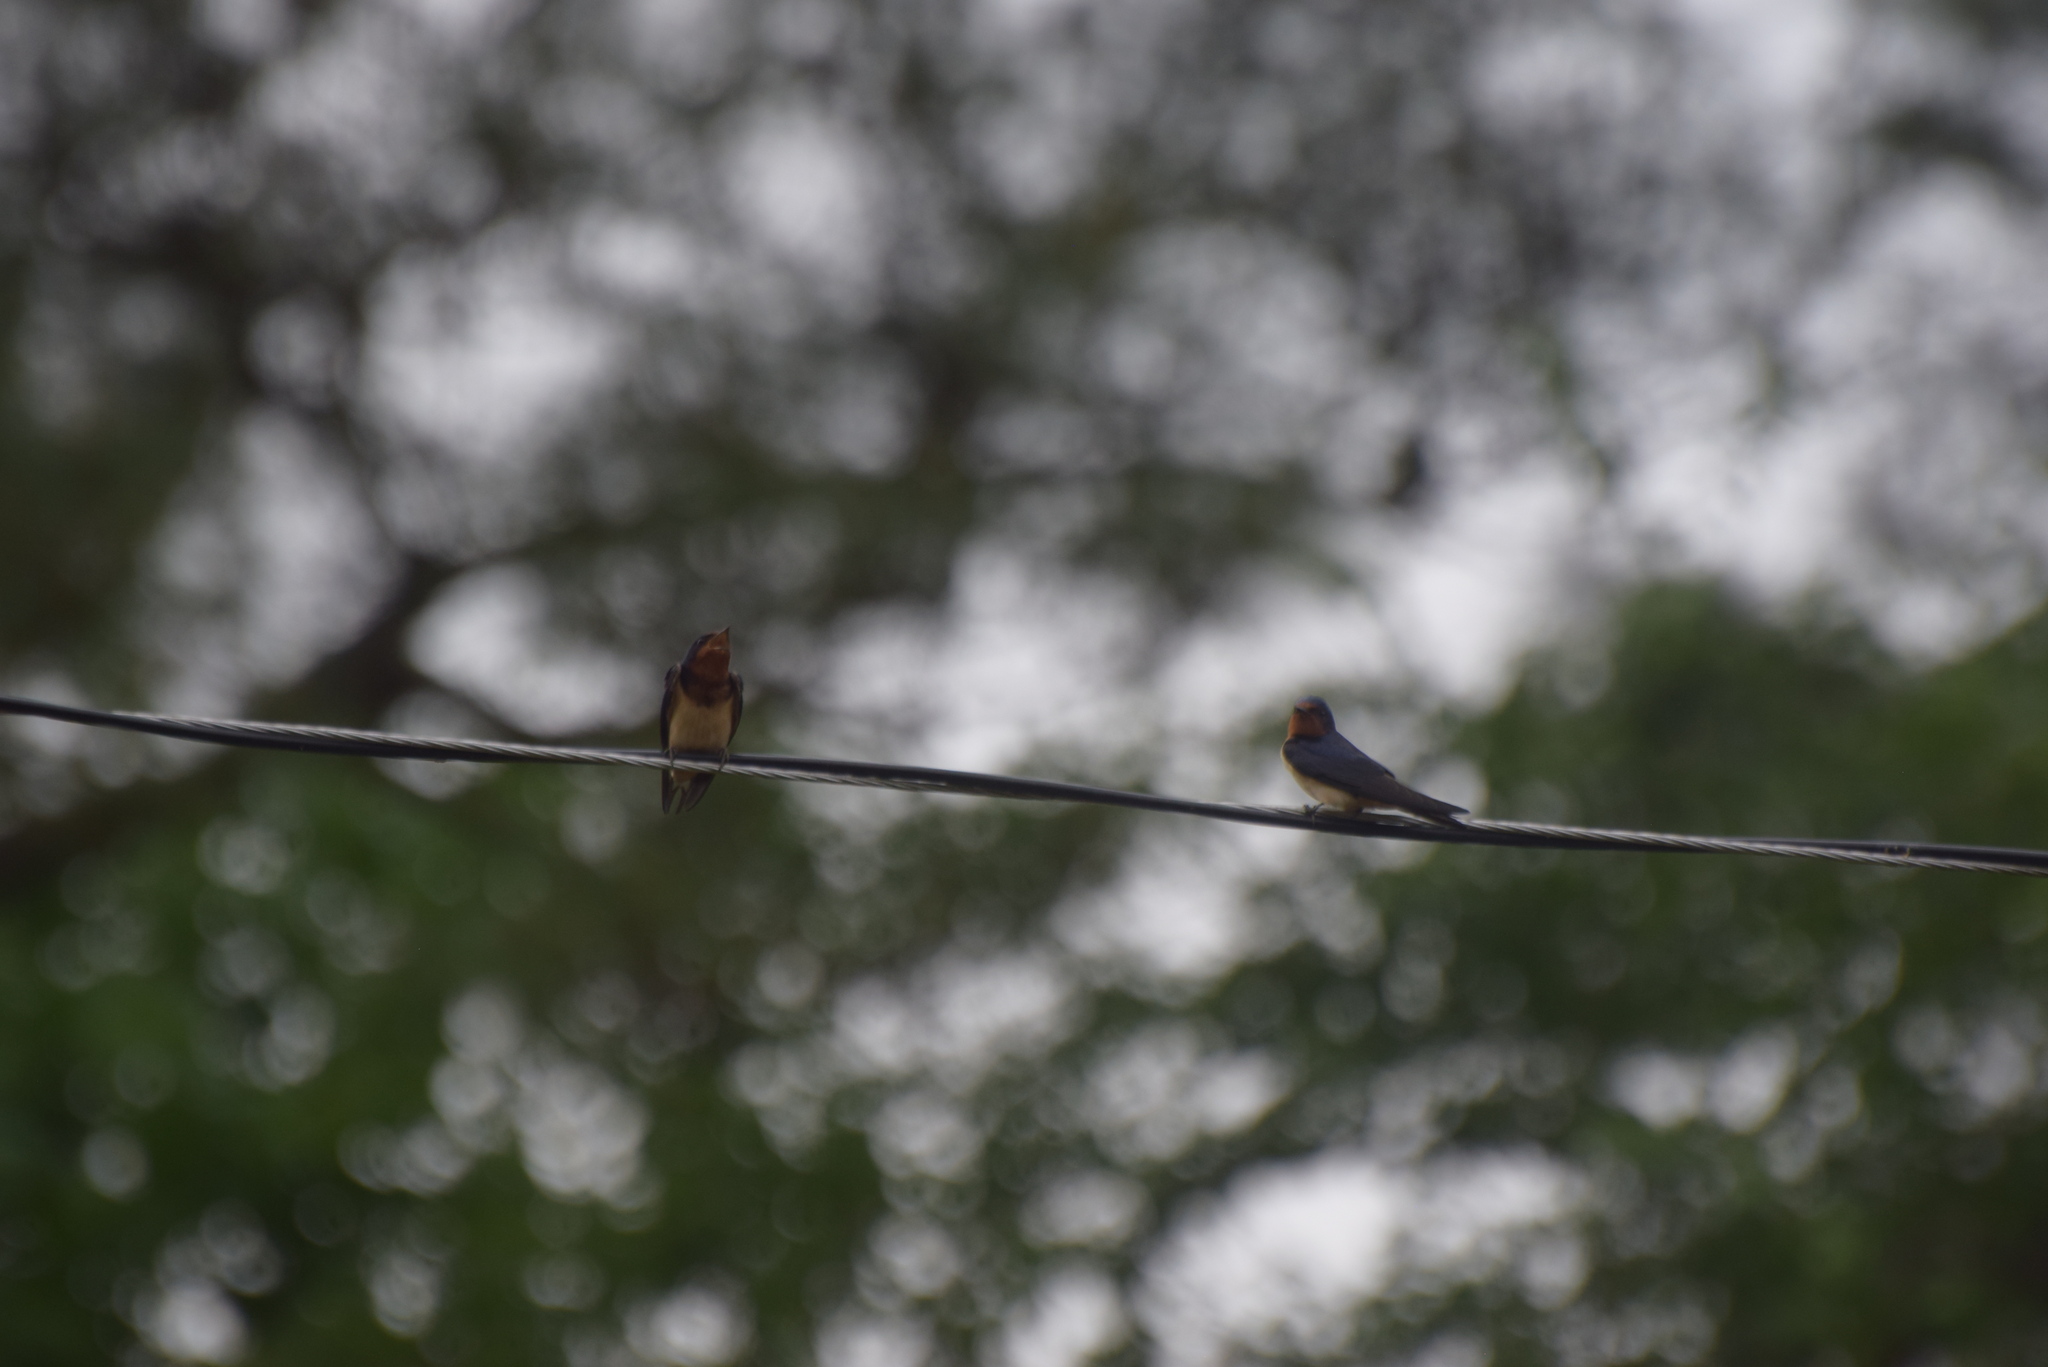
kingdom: Animalia
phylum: Chordata
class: Aves
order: Passeriformes
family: Hirundinidae
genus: Hirundo
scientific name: Hirundo rustica
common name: Barn swallow
